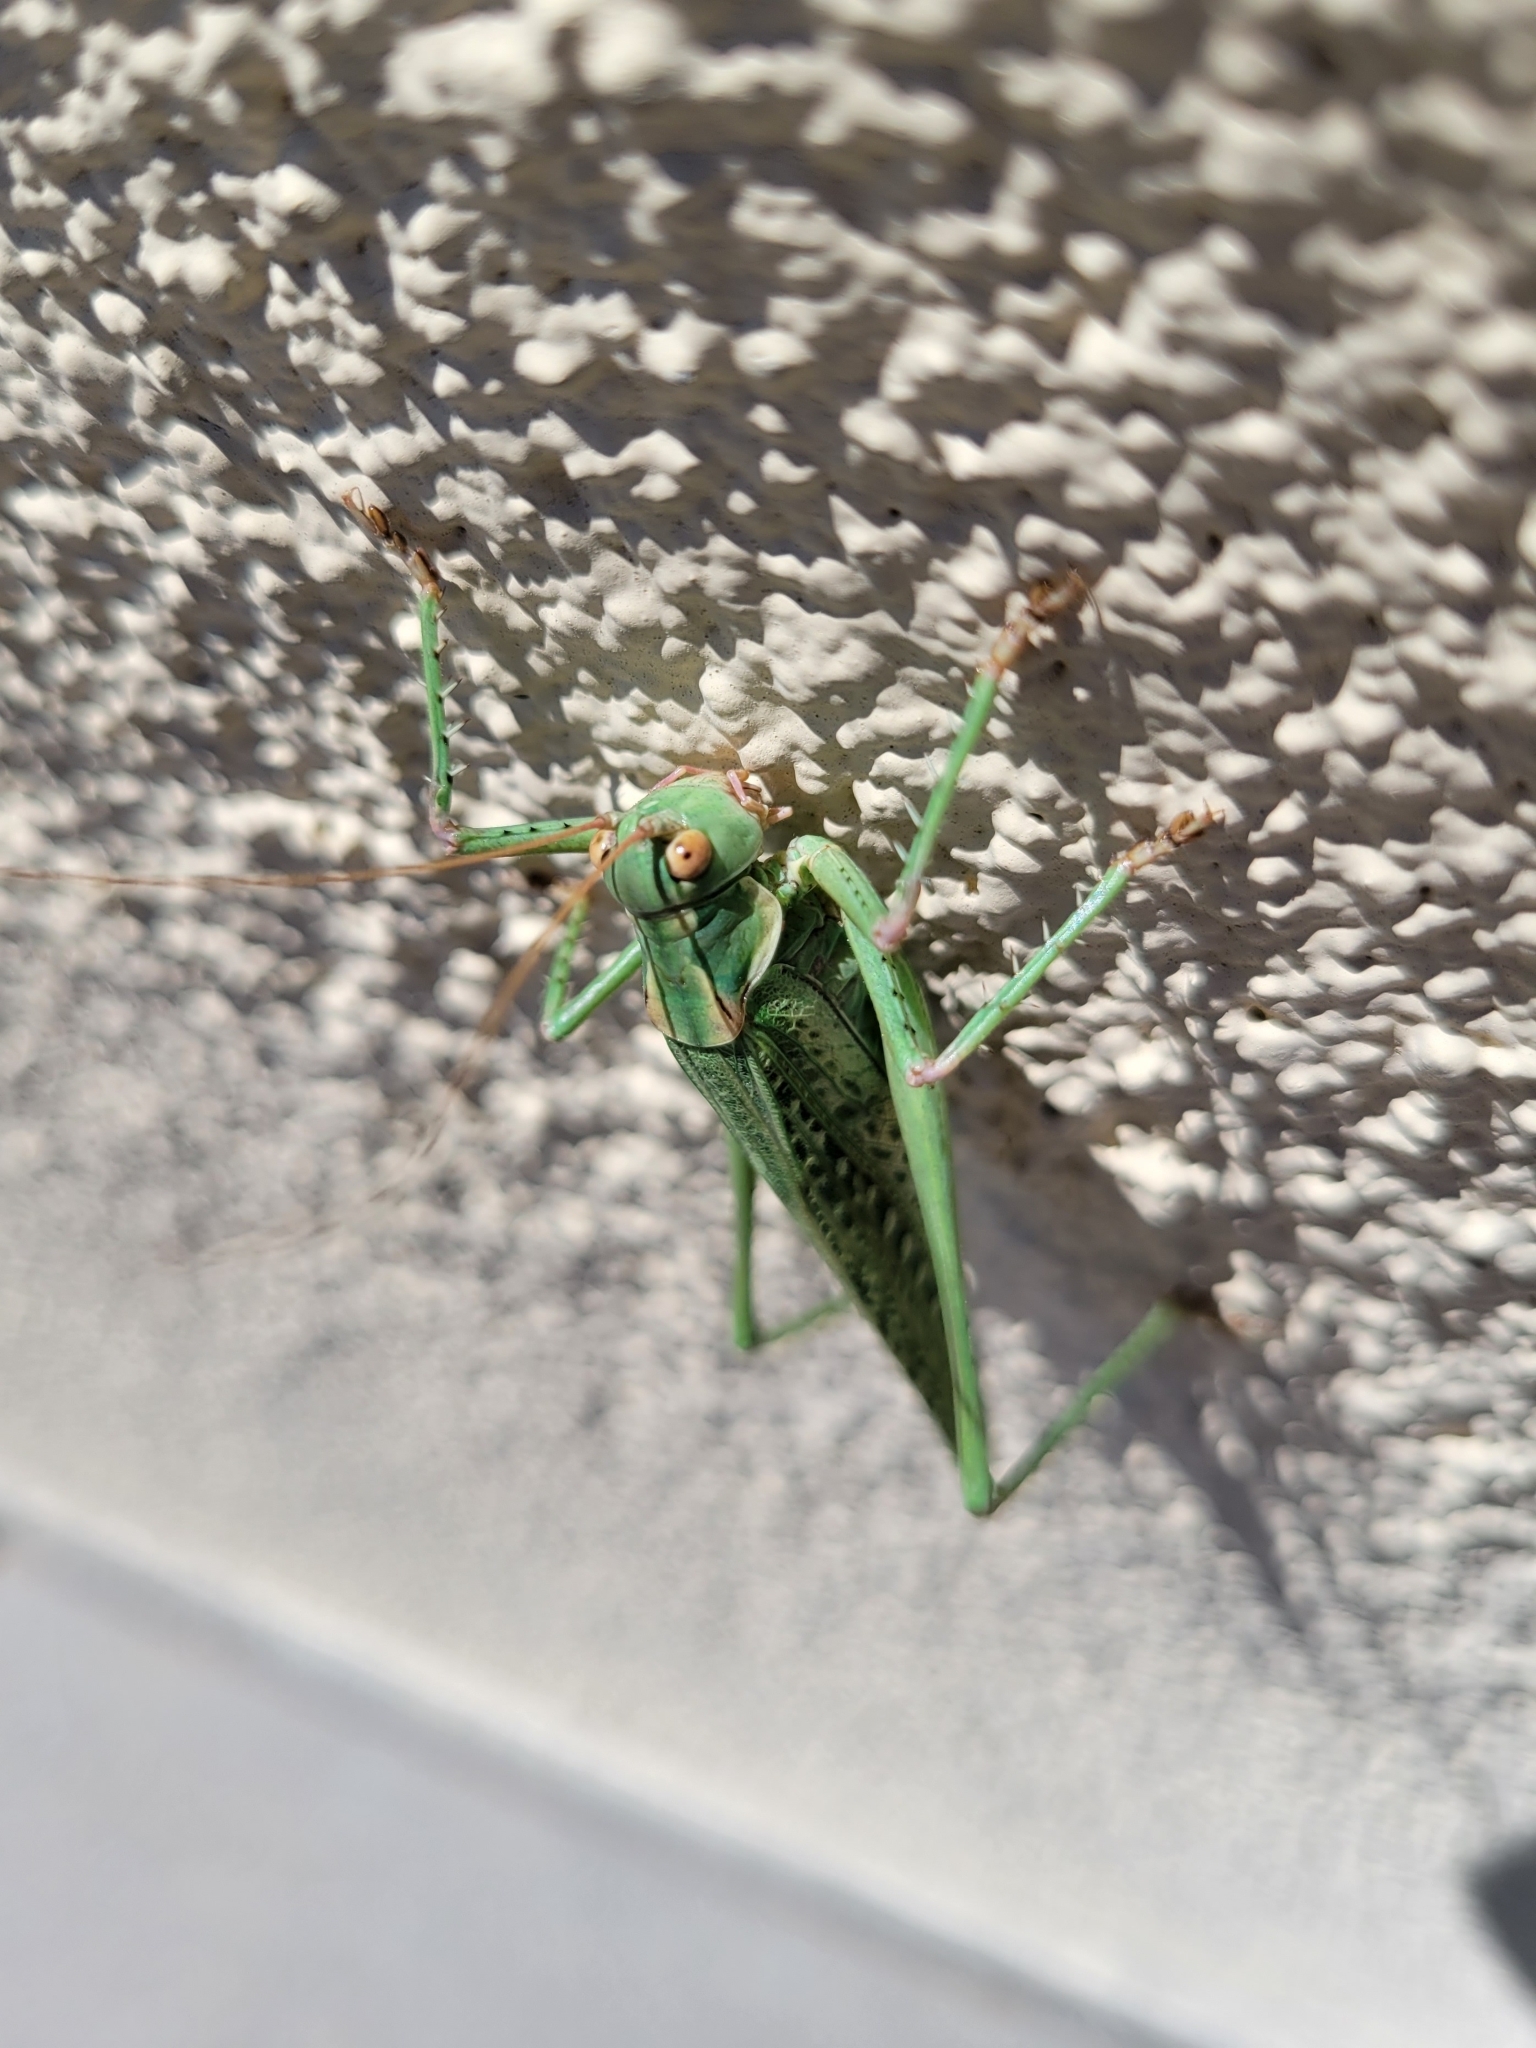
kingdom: Animalia
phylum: Arthropoda
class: Insecta
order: Orthoptera
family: Tettigoniidae
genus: Capnobotes
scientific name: Capnobotes occidentalis
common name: Western longwing
